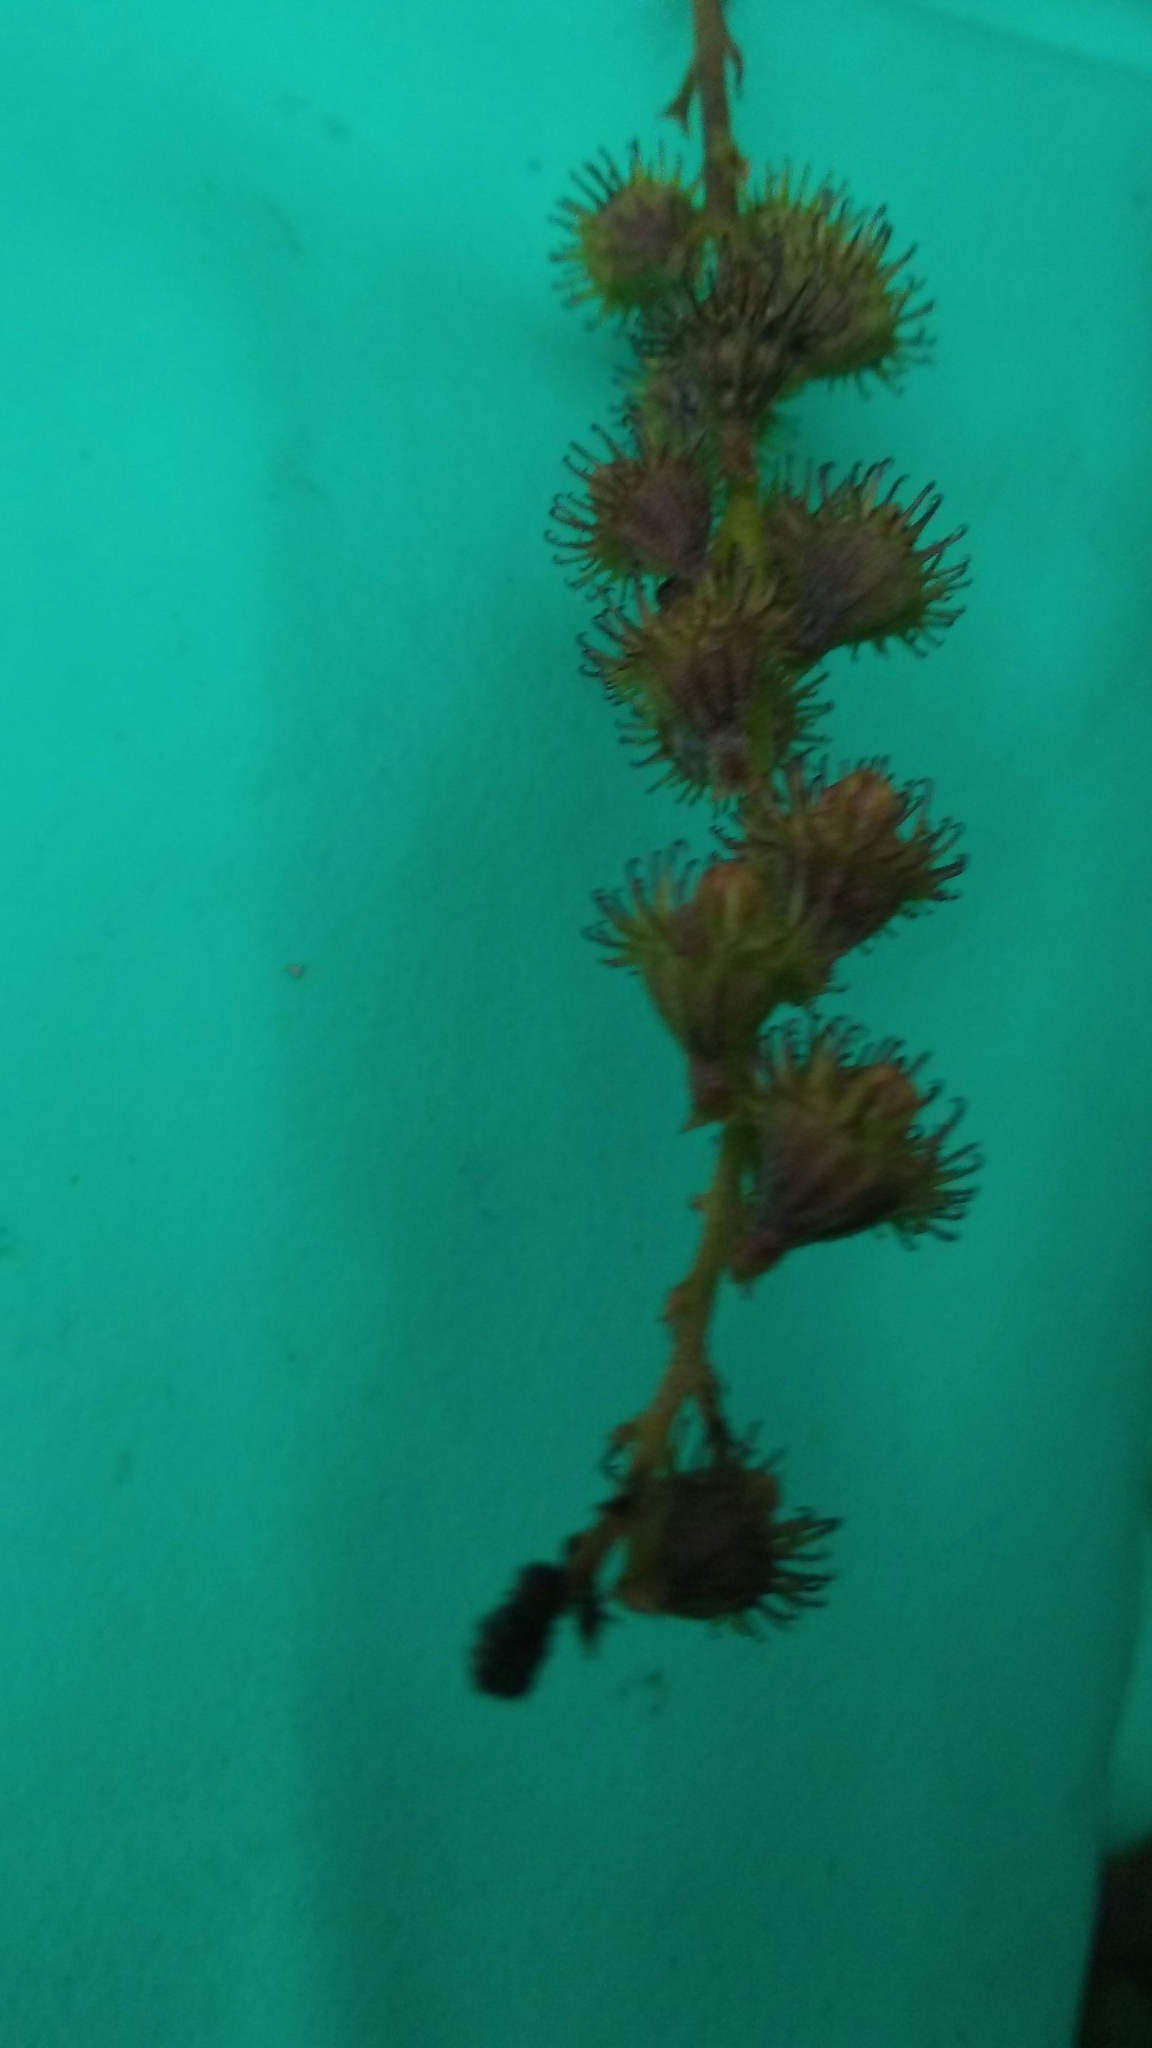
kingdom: Plantae
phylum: Tracheophyta
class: Magnoliopsida
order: Rosales
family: Rosaceae
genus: Agrimonia
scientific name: Agrimonia parviflora
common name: Harvest-lice
